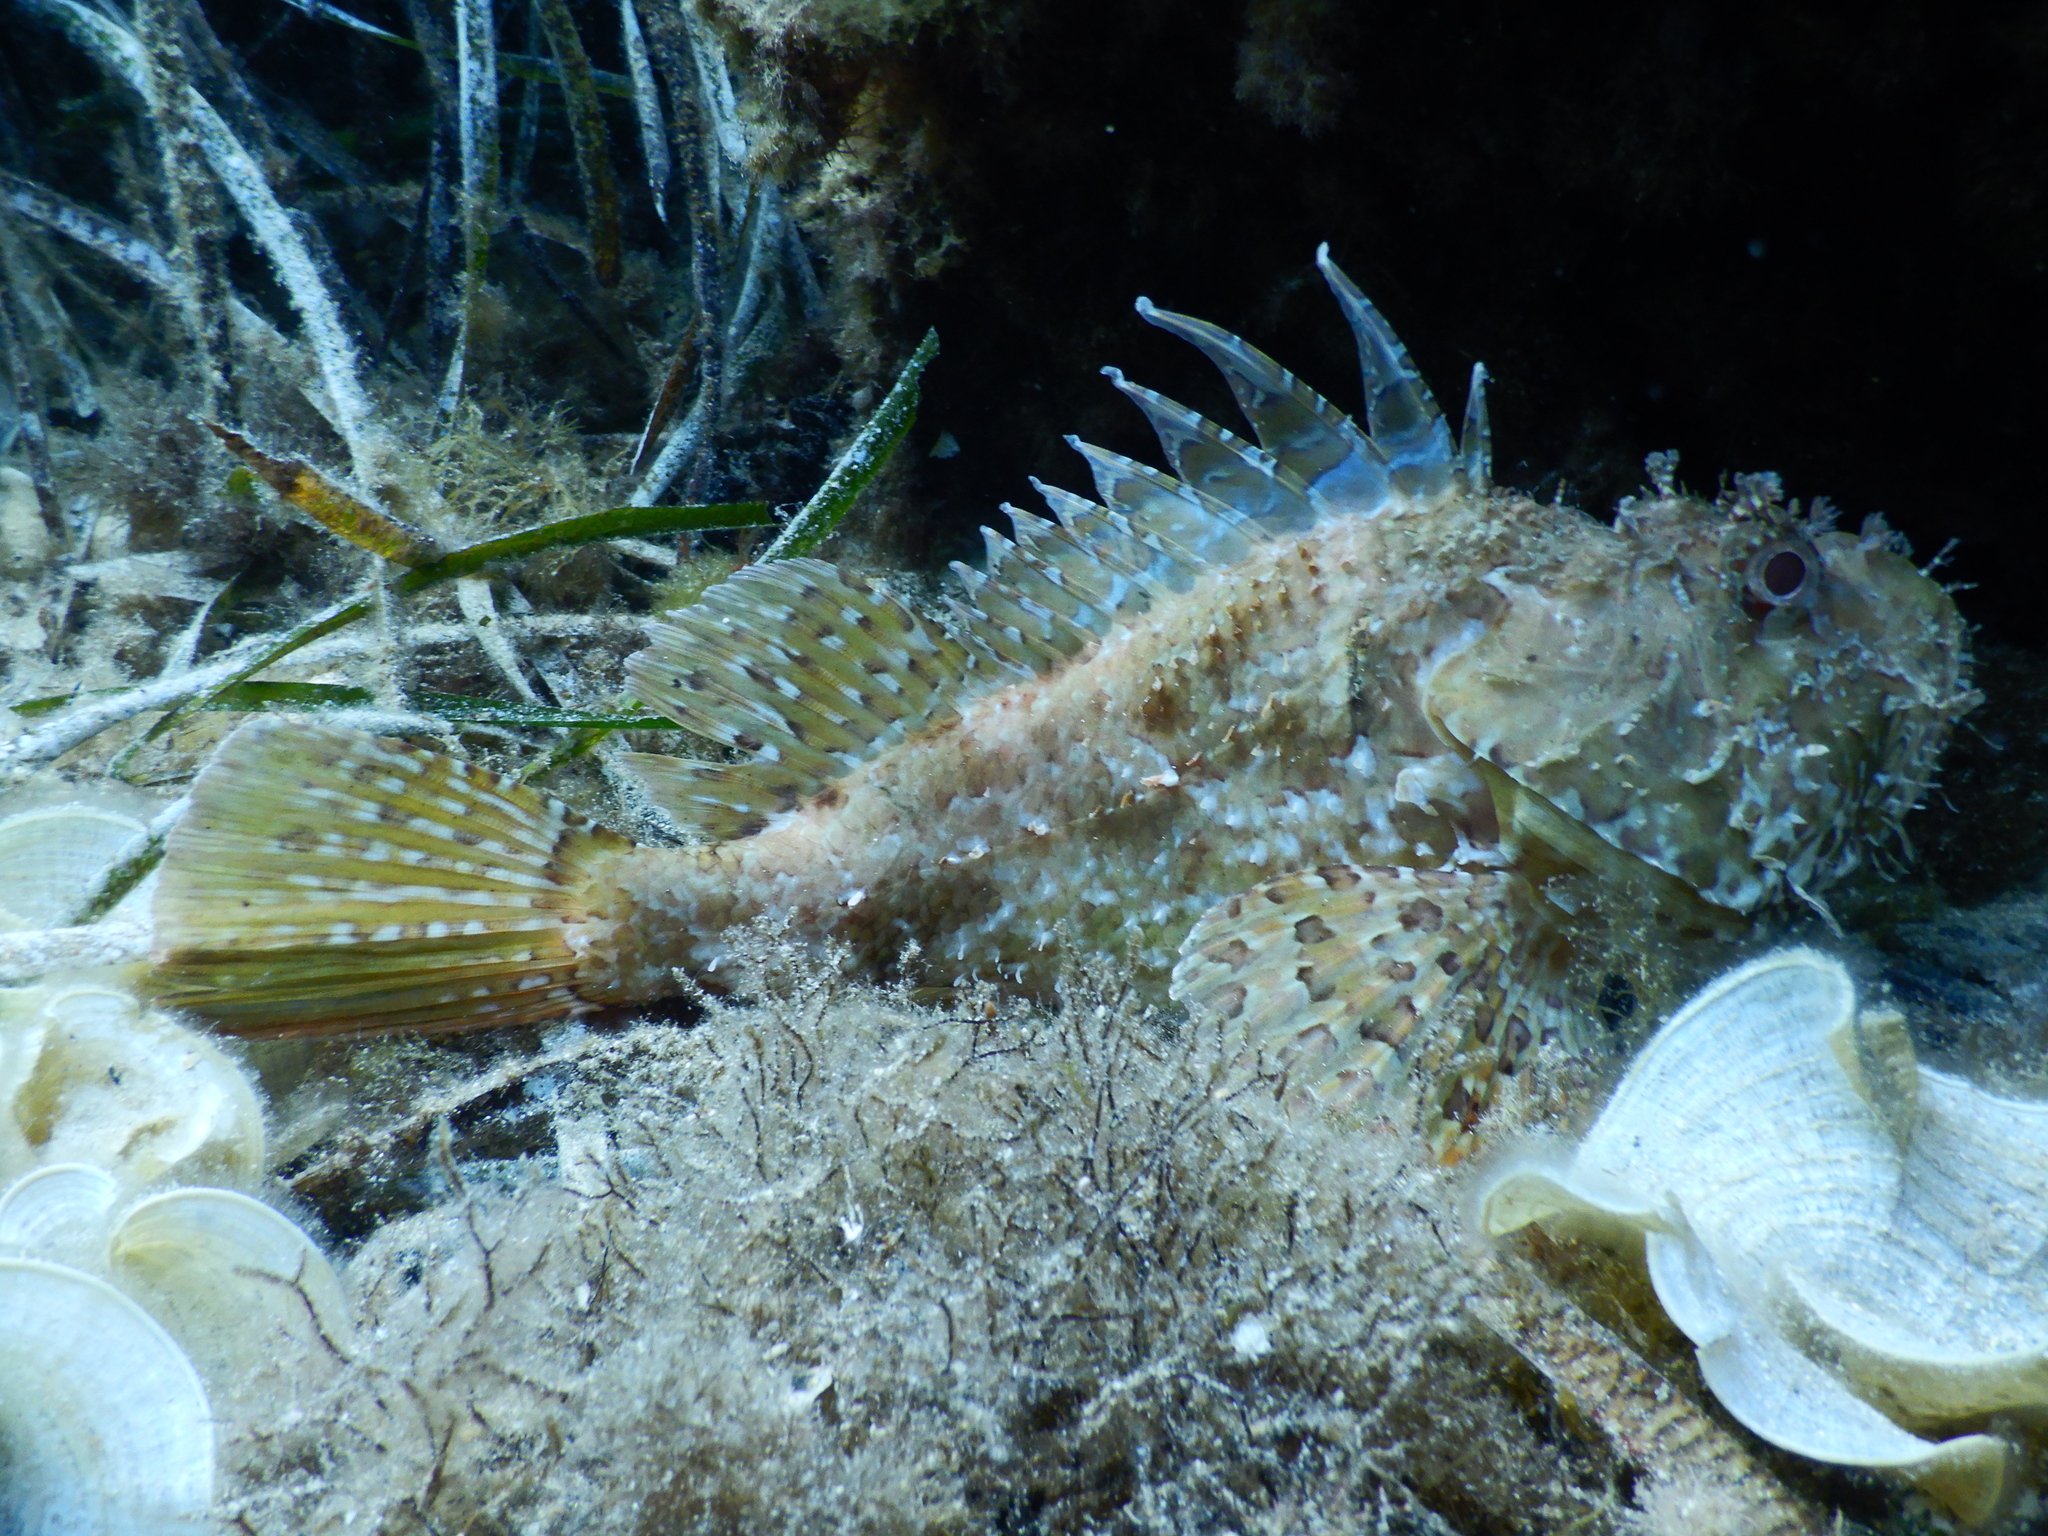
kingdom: Animalia
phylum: Chordata
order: Scorpaeniformes
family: Scorpaenidae
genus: Scorpaena
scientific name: Scorpaena scrofa
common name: Red scorpionfish
